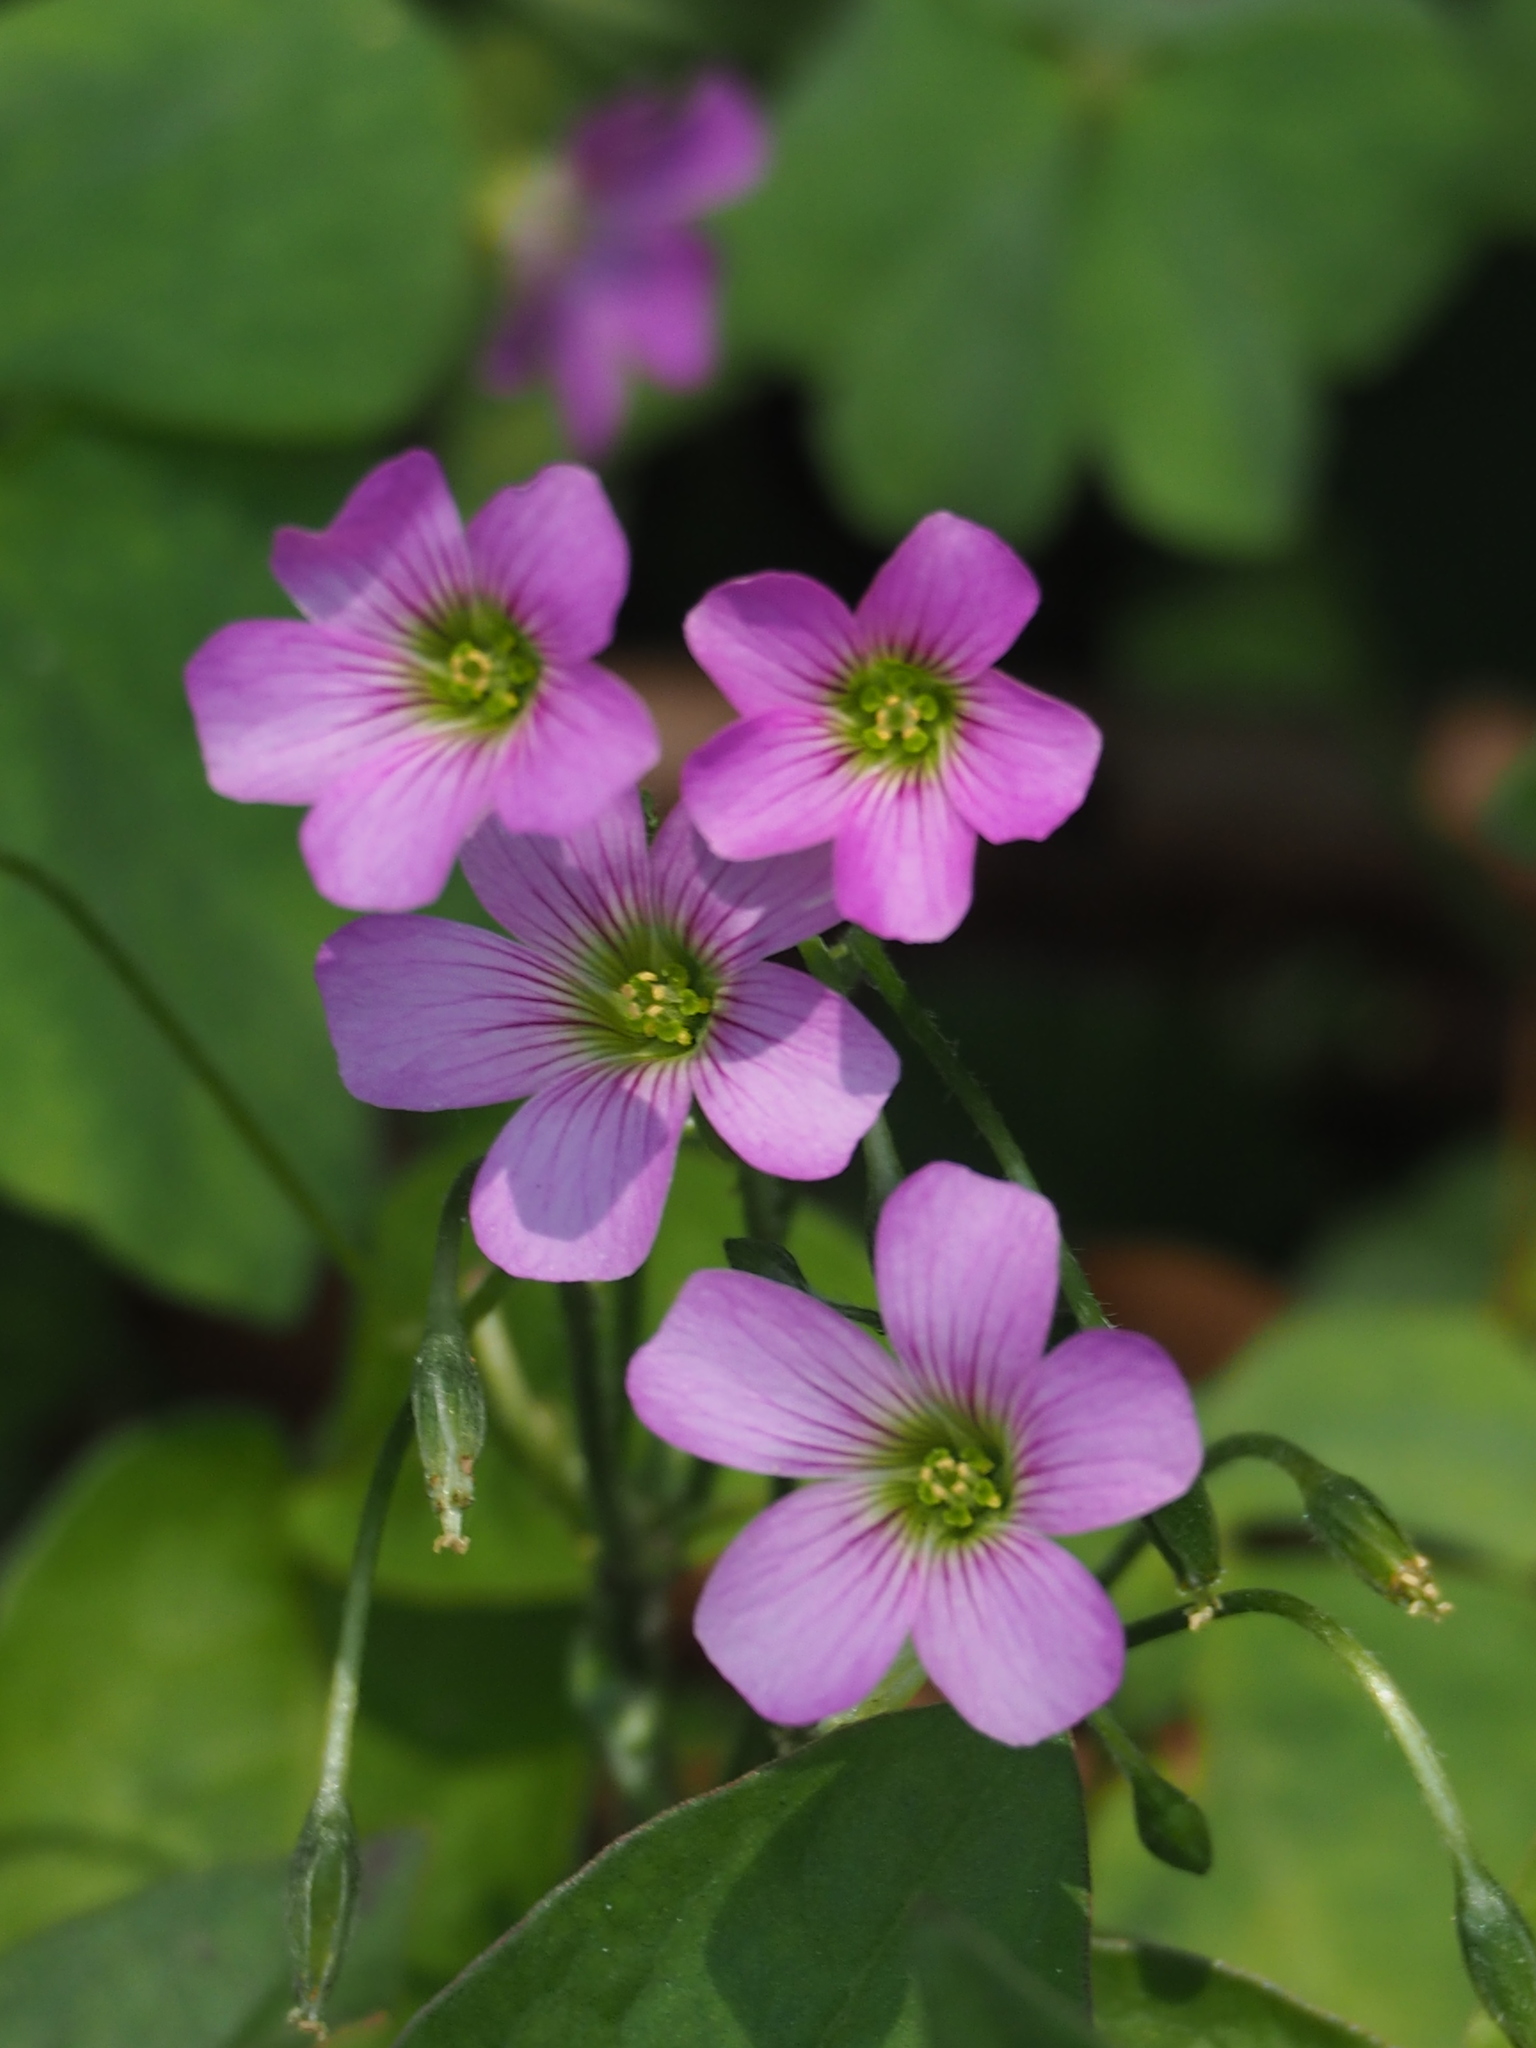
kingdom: Plantae
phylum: Tracheophyta
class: Magnoliopsida
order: Oxalidales
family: Oxalidaceae
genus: Oxalis
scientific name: Oxalis debilis
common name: Large-flowered pink-sorrel
